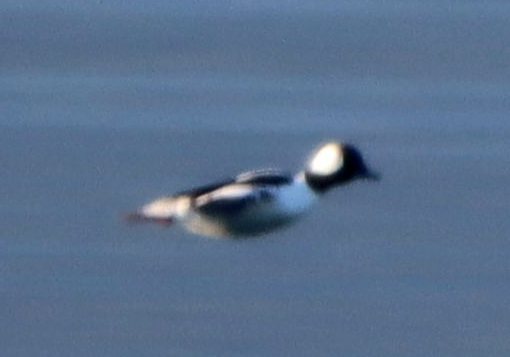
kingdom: Animalia
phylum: Chordata
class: Aves
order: Anseriformes
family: Anatidae
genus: Bucephala
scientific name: Bucephala albeola
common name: Bufflehead
